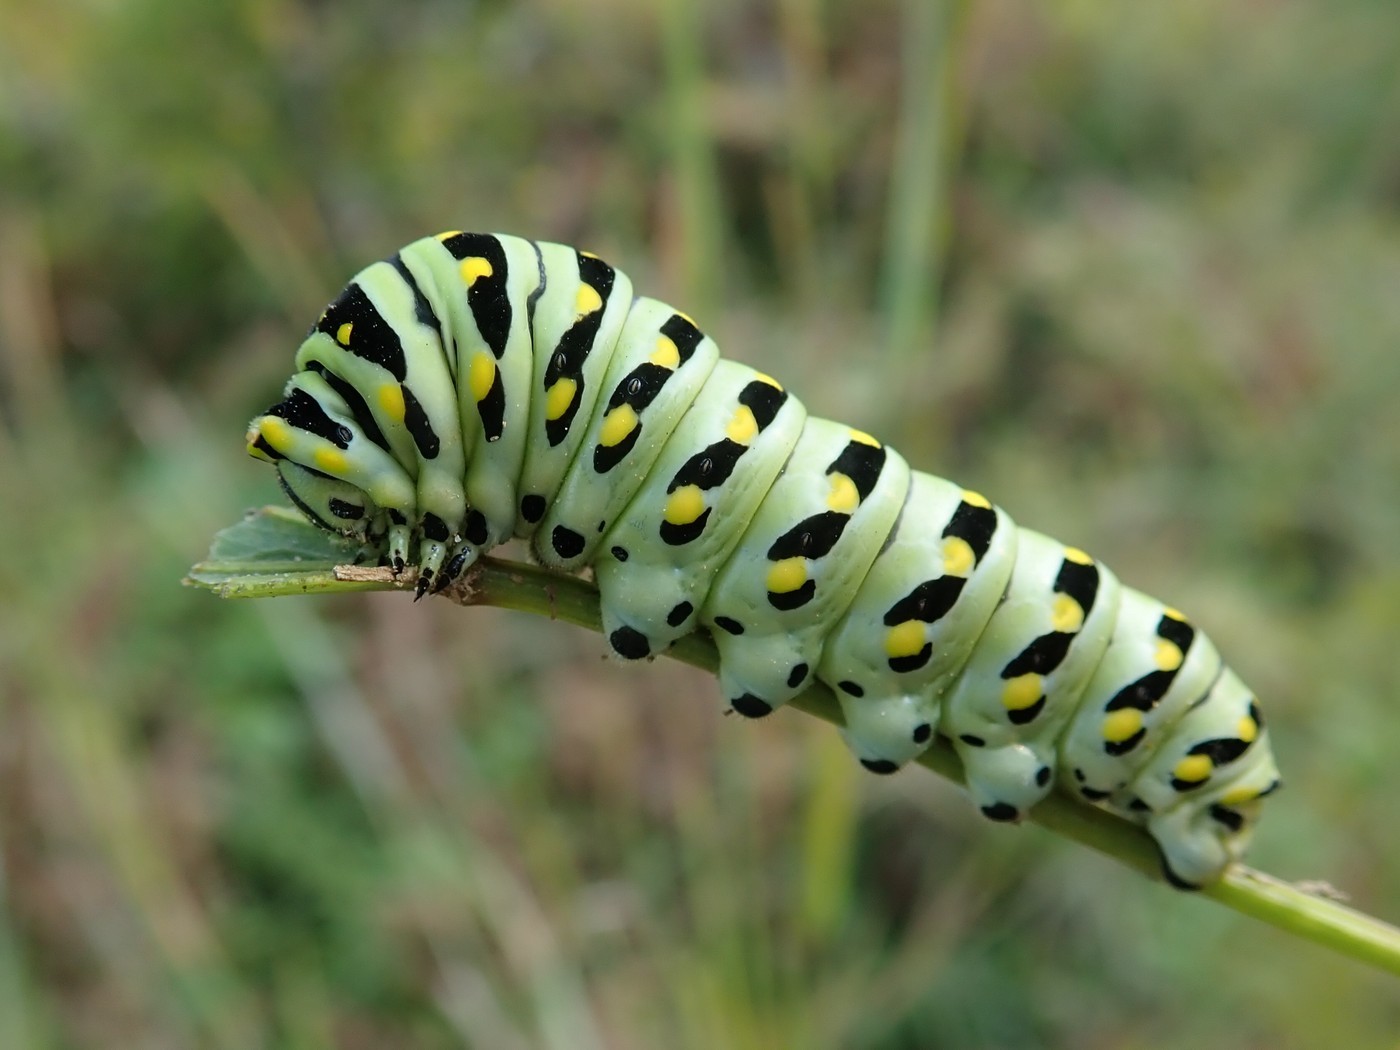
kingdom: Animalia
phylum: Arthropoda
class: Insecta
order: Lepidoptera
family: Papilionidae
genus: Papilio
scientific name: Papilio polyxenes
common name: Black swallowtail
